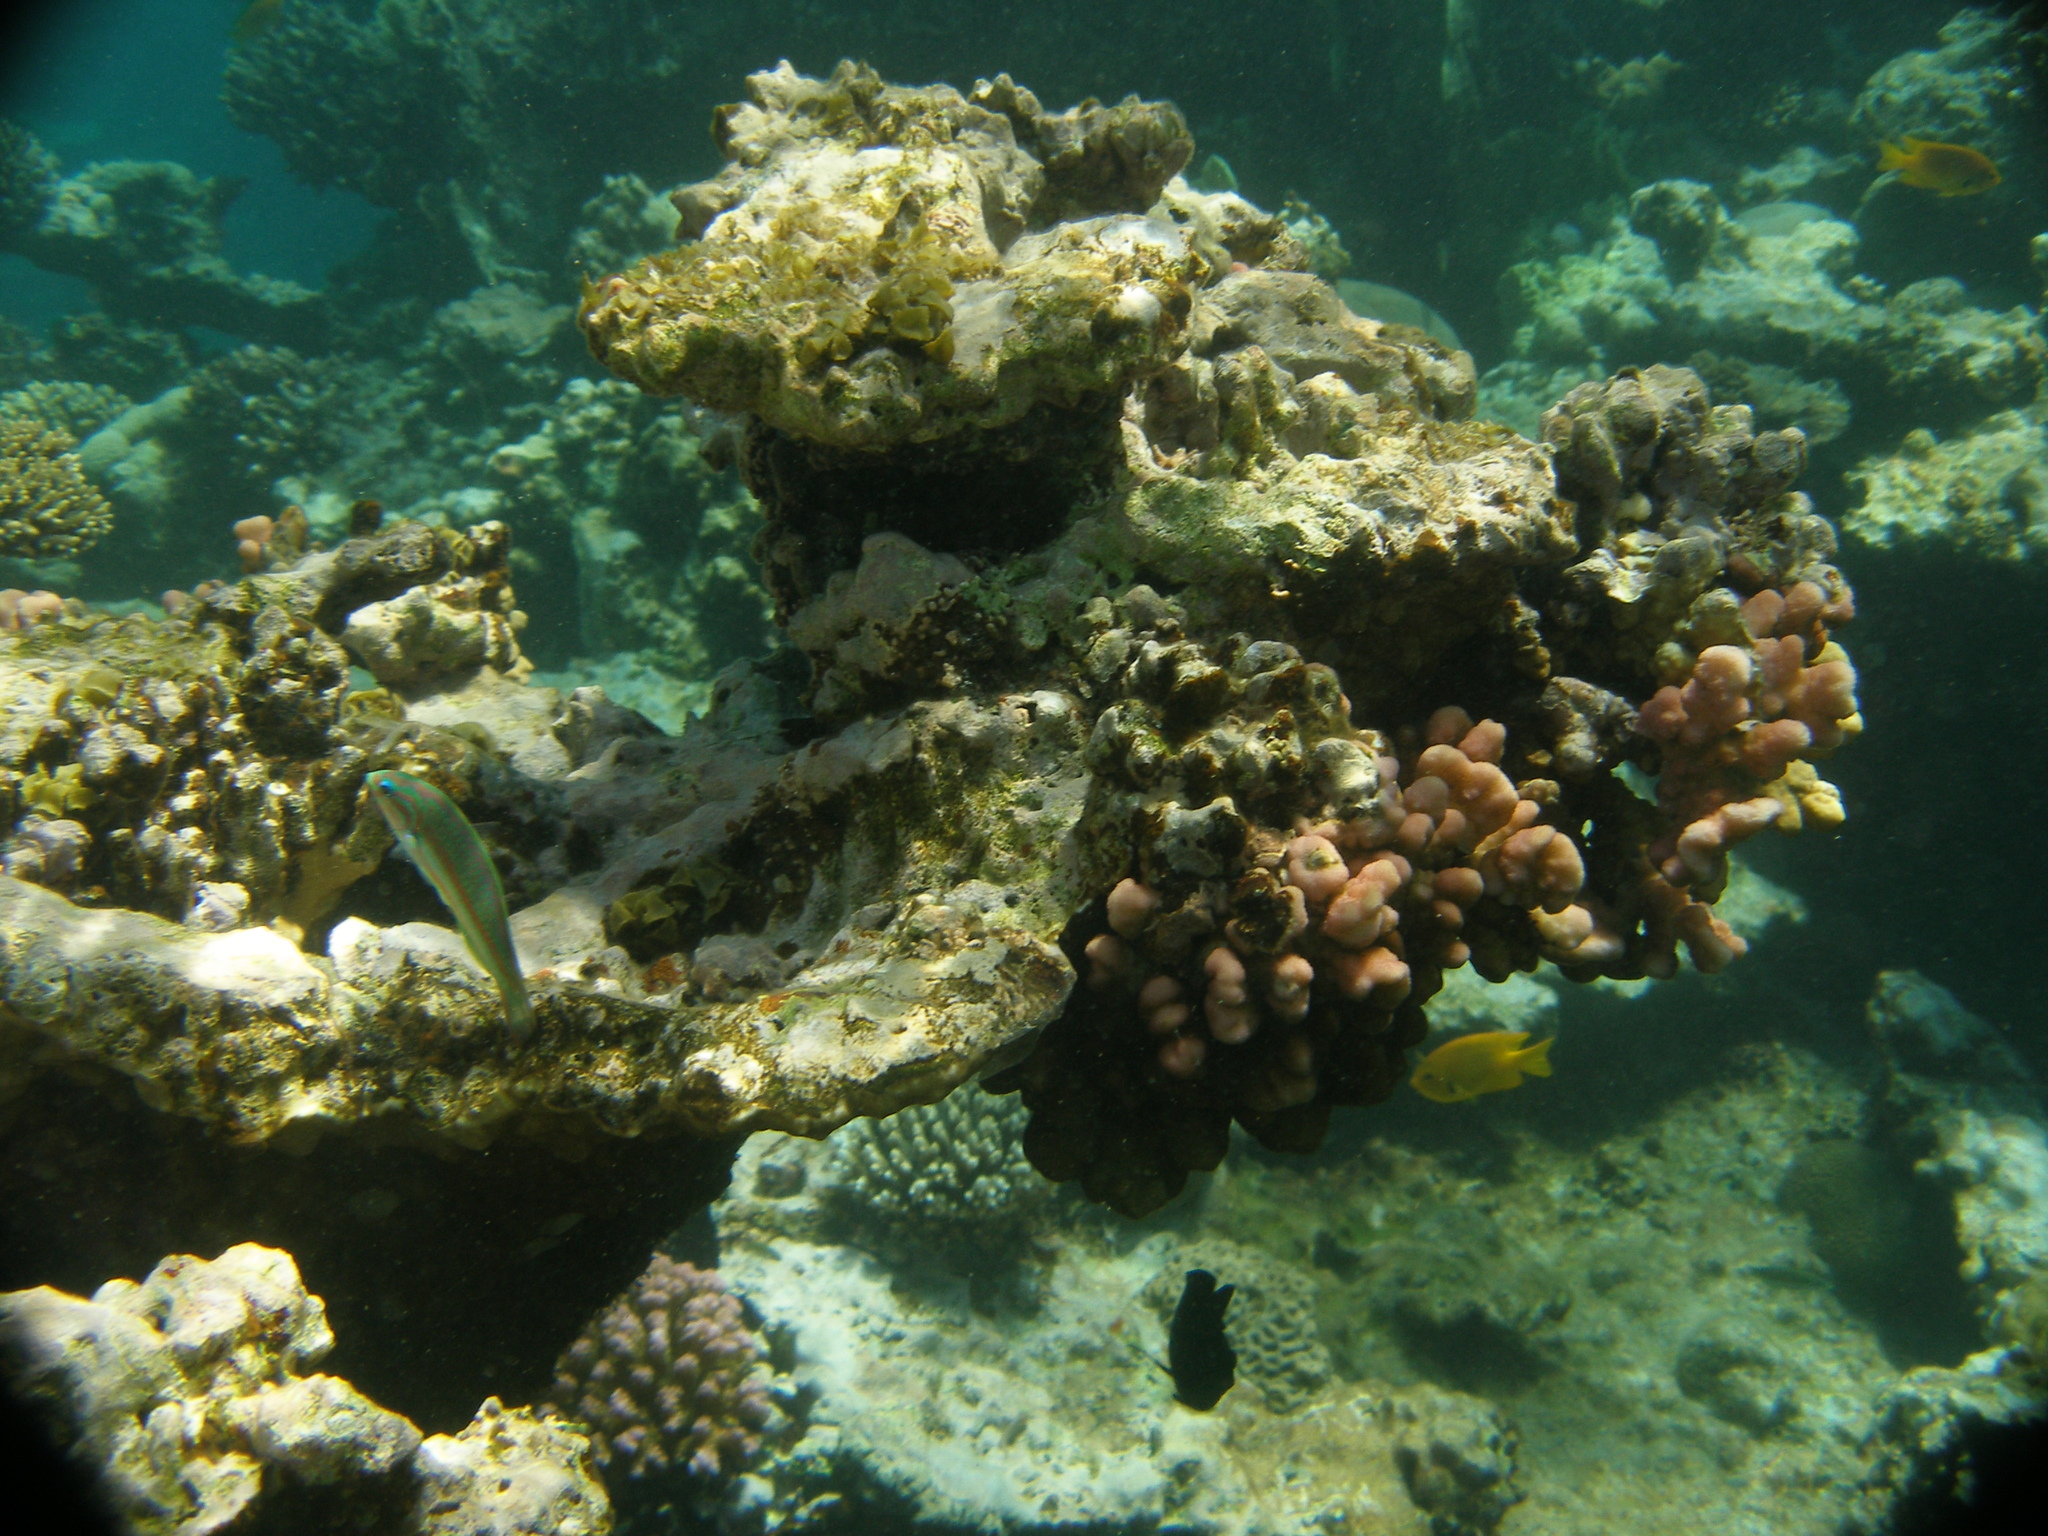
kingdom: Animalia
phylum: Cnidaria
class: Anthozoa
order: Scleractinia
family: Pocilloporidae
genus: Stylophora
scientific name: Stylophora wellsi
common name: Hood coral
